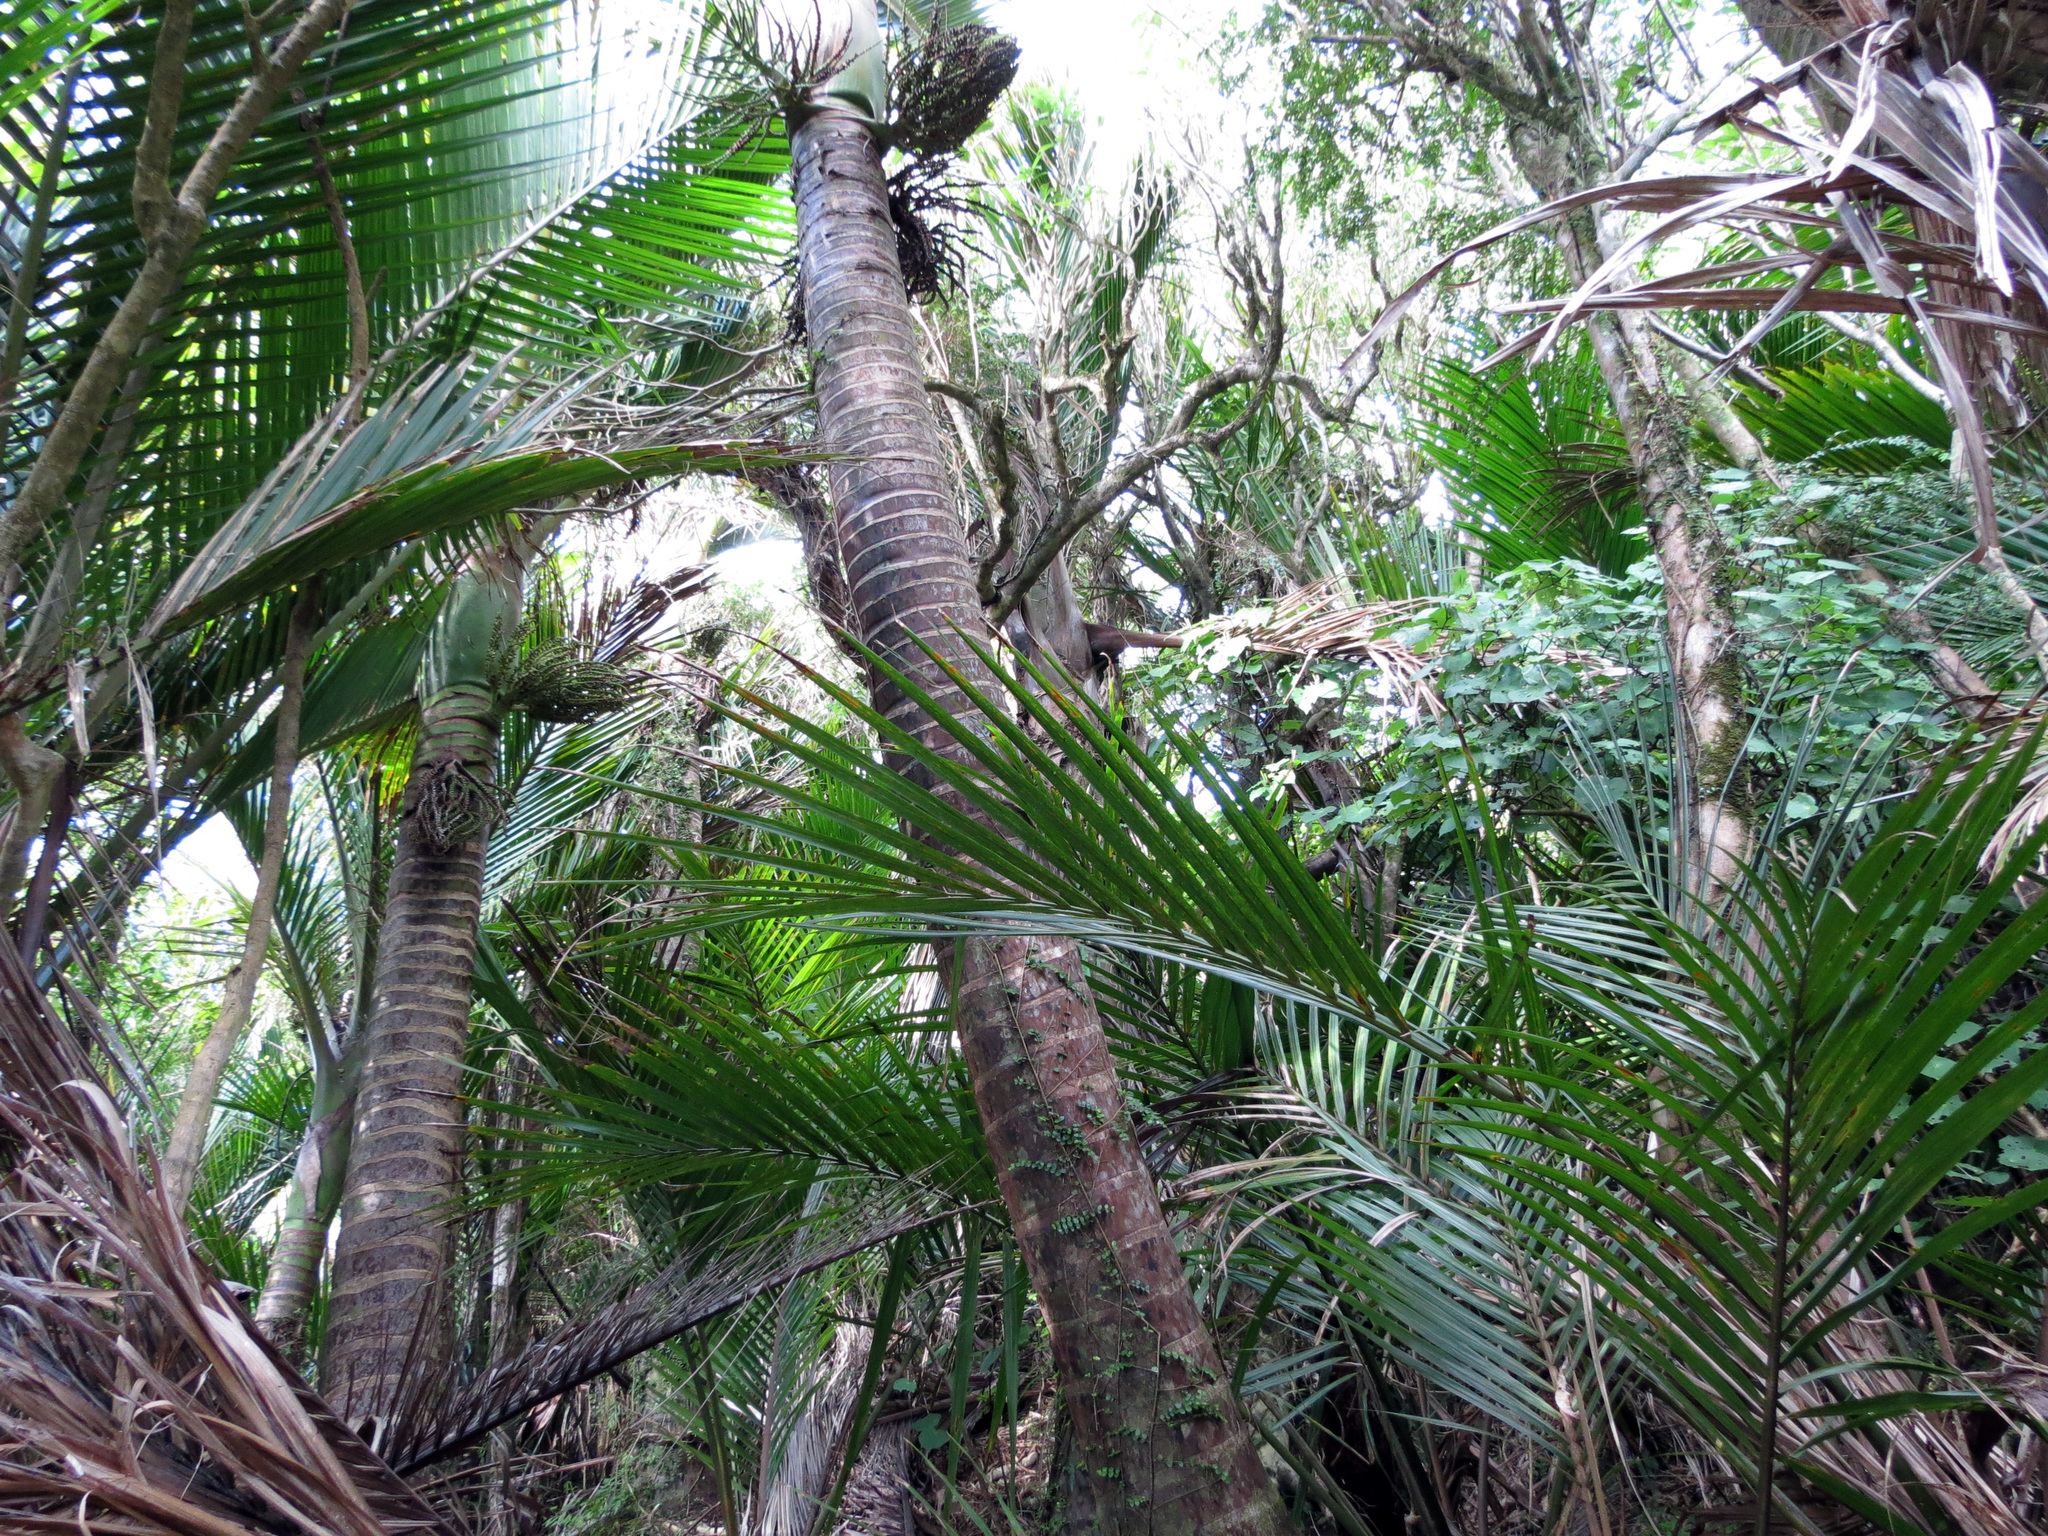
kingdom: Plantae
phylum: Tracheophyta
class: Liliopsida
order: Arecales
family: Arecaceae
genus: Rhopalostylis
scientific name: Rhopalostylis sapida
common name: Feather-duster palm
